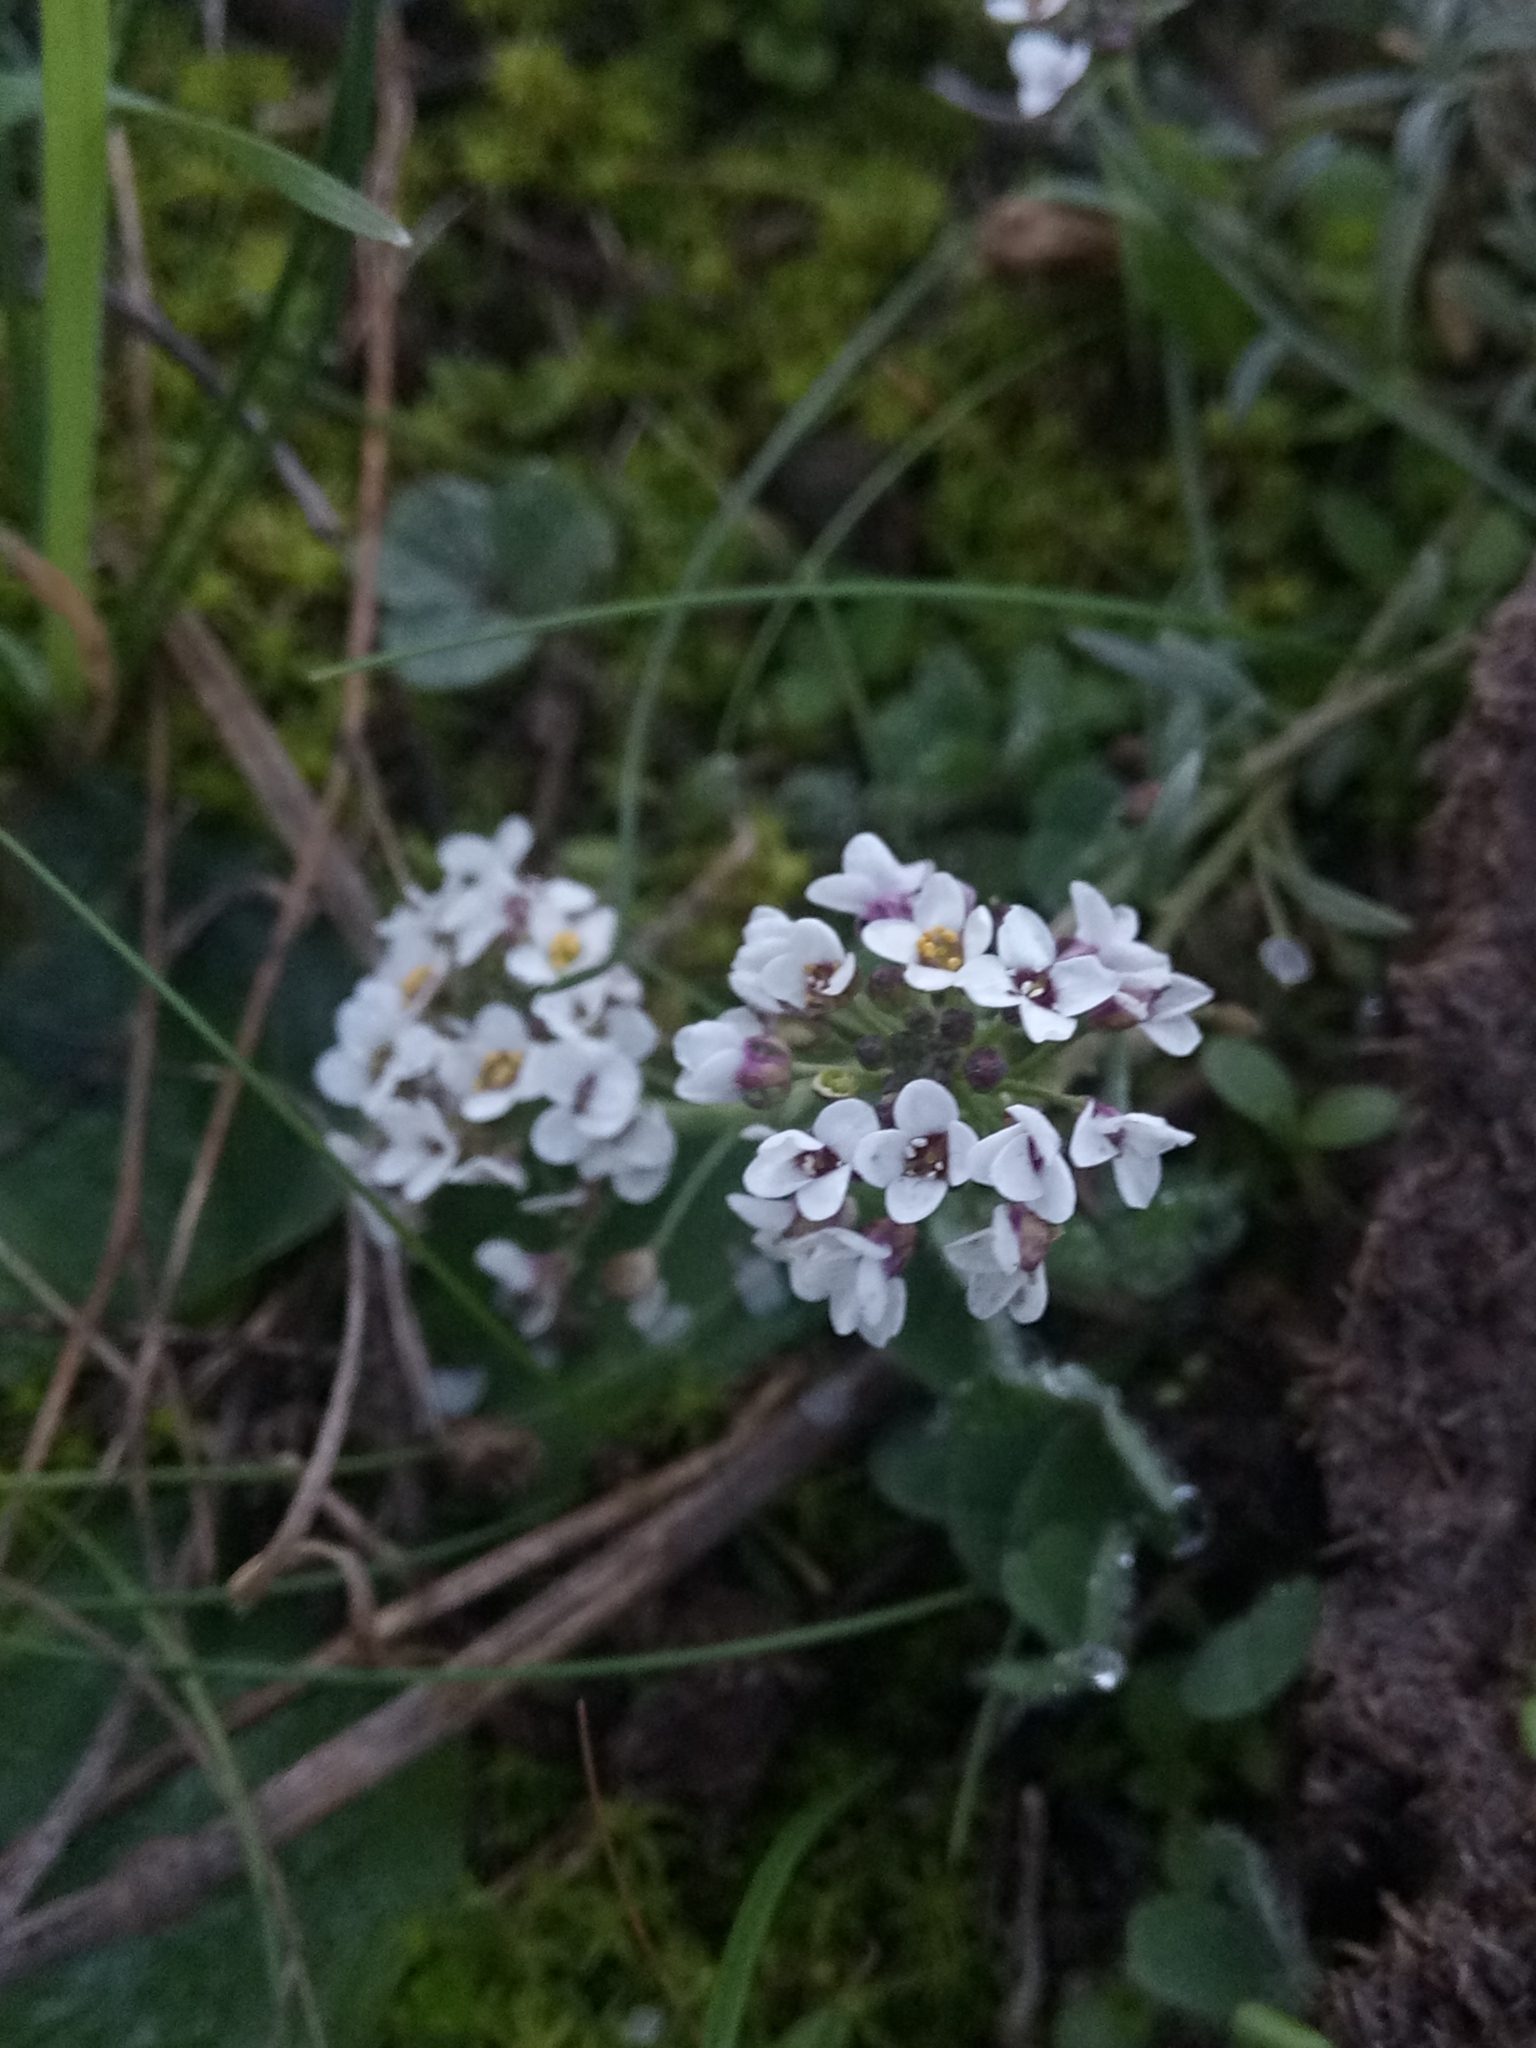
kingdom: Plantae
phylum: Tracheophyta
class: Magnoliopsida
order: Brassicales
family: Brassicaceae
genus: Lobularia
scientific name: Lobularia maritima
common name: Sweet alison
